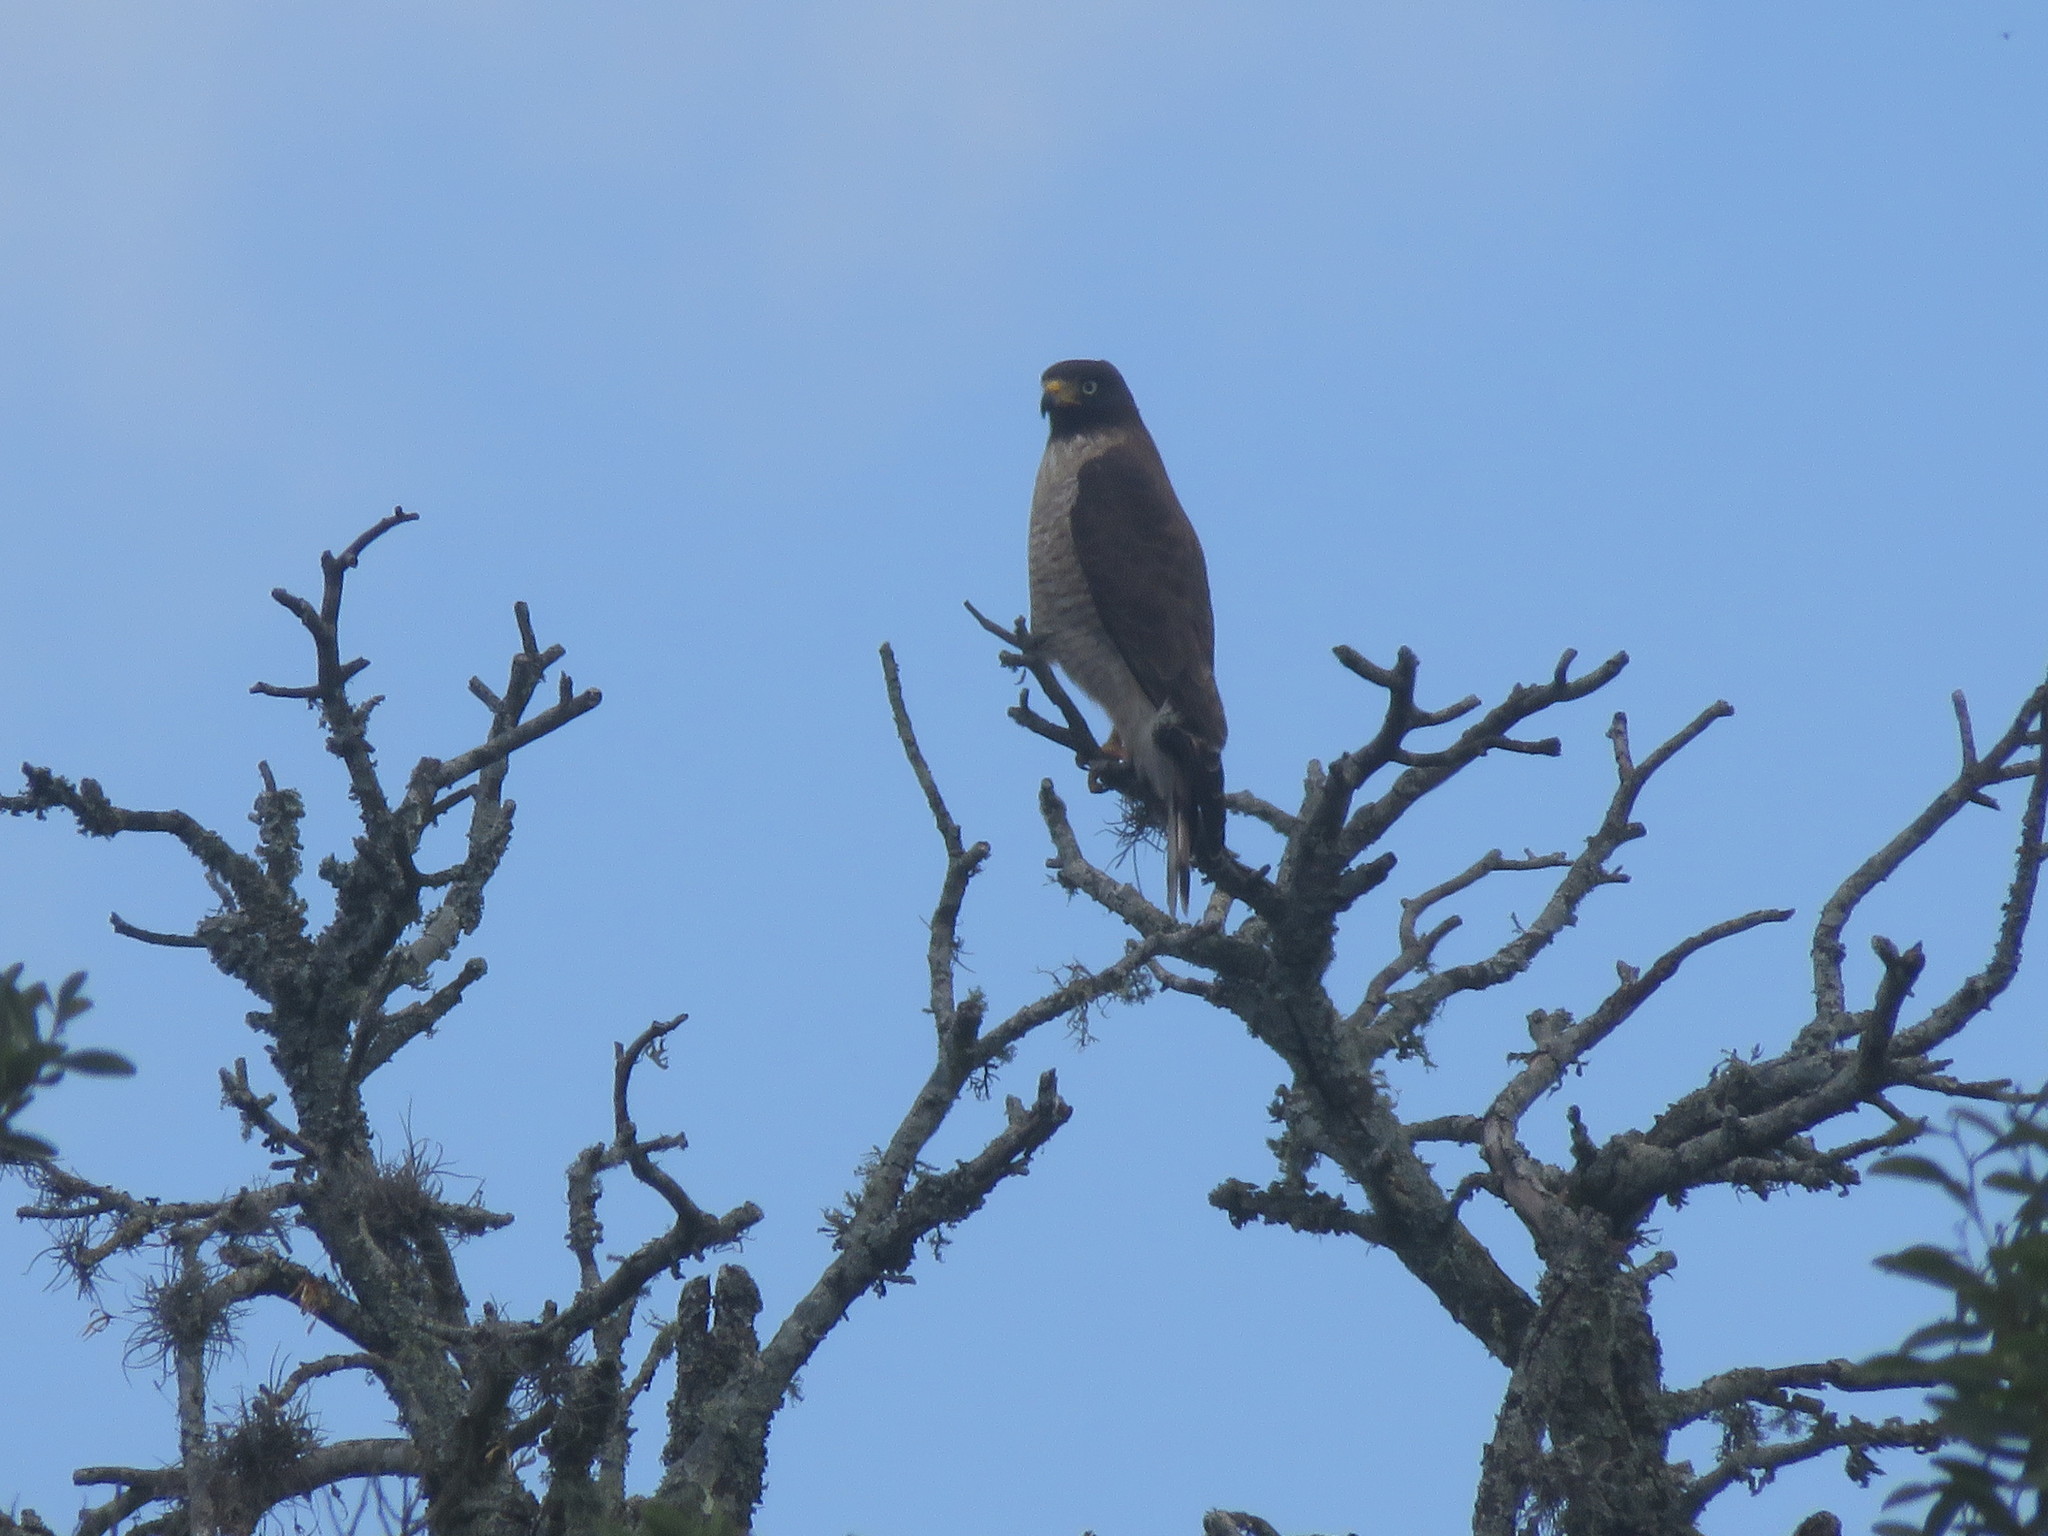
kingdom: Animalia
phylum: Chordata
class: Aves
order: Accipitriformes
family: Accipitridae
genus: Rupornis
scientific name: Rupornis magnirostris
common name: Roadside hawk
